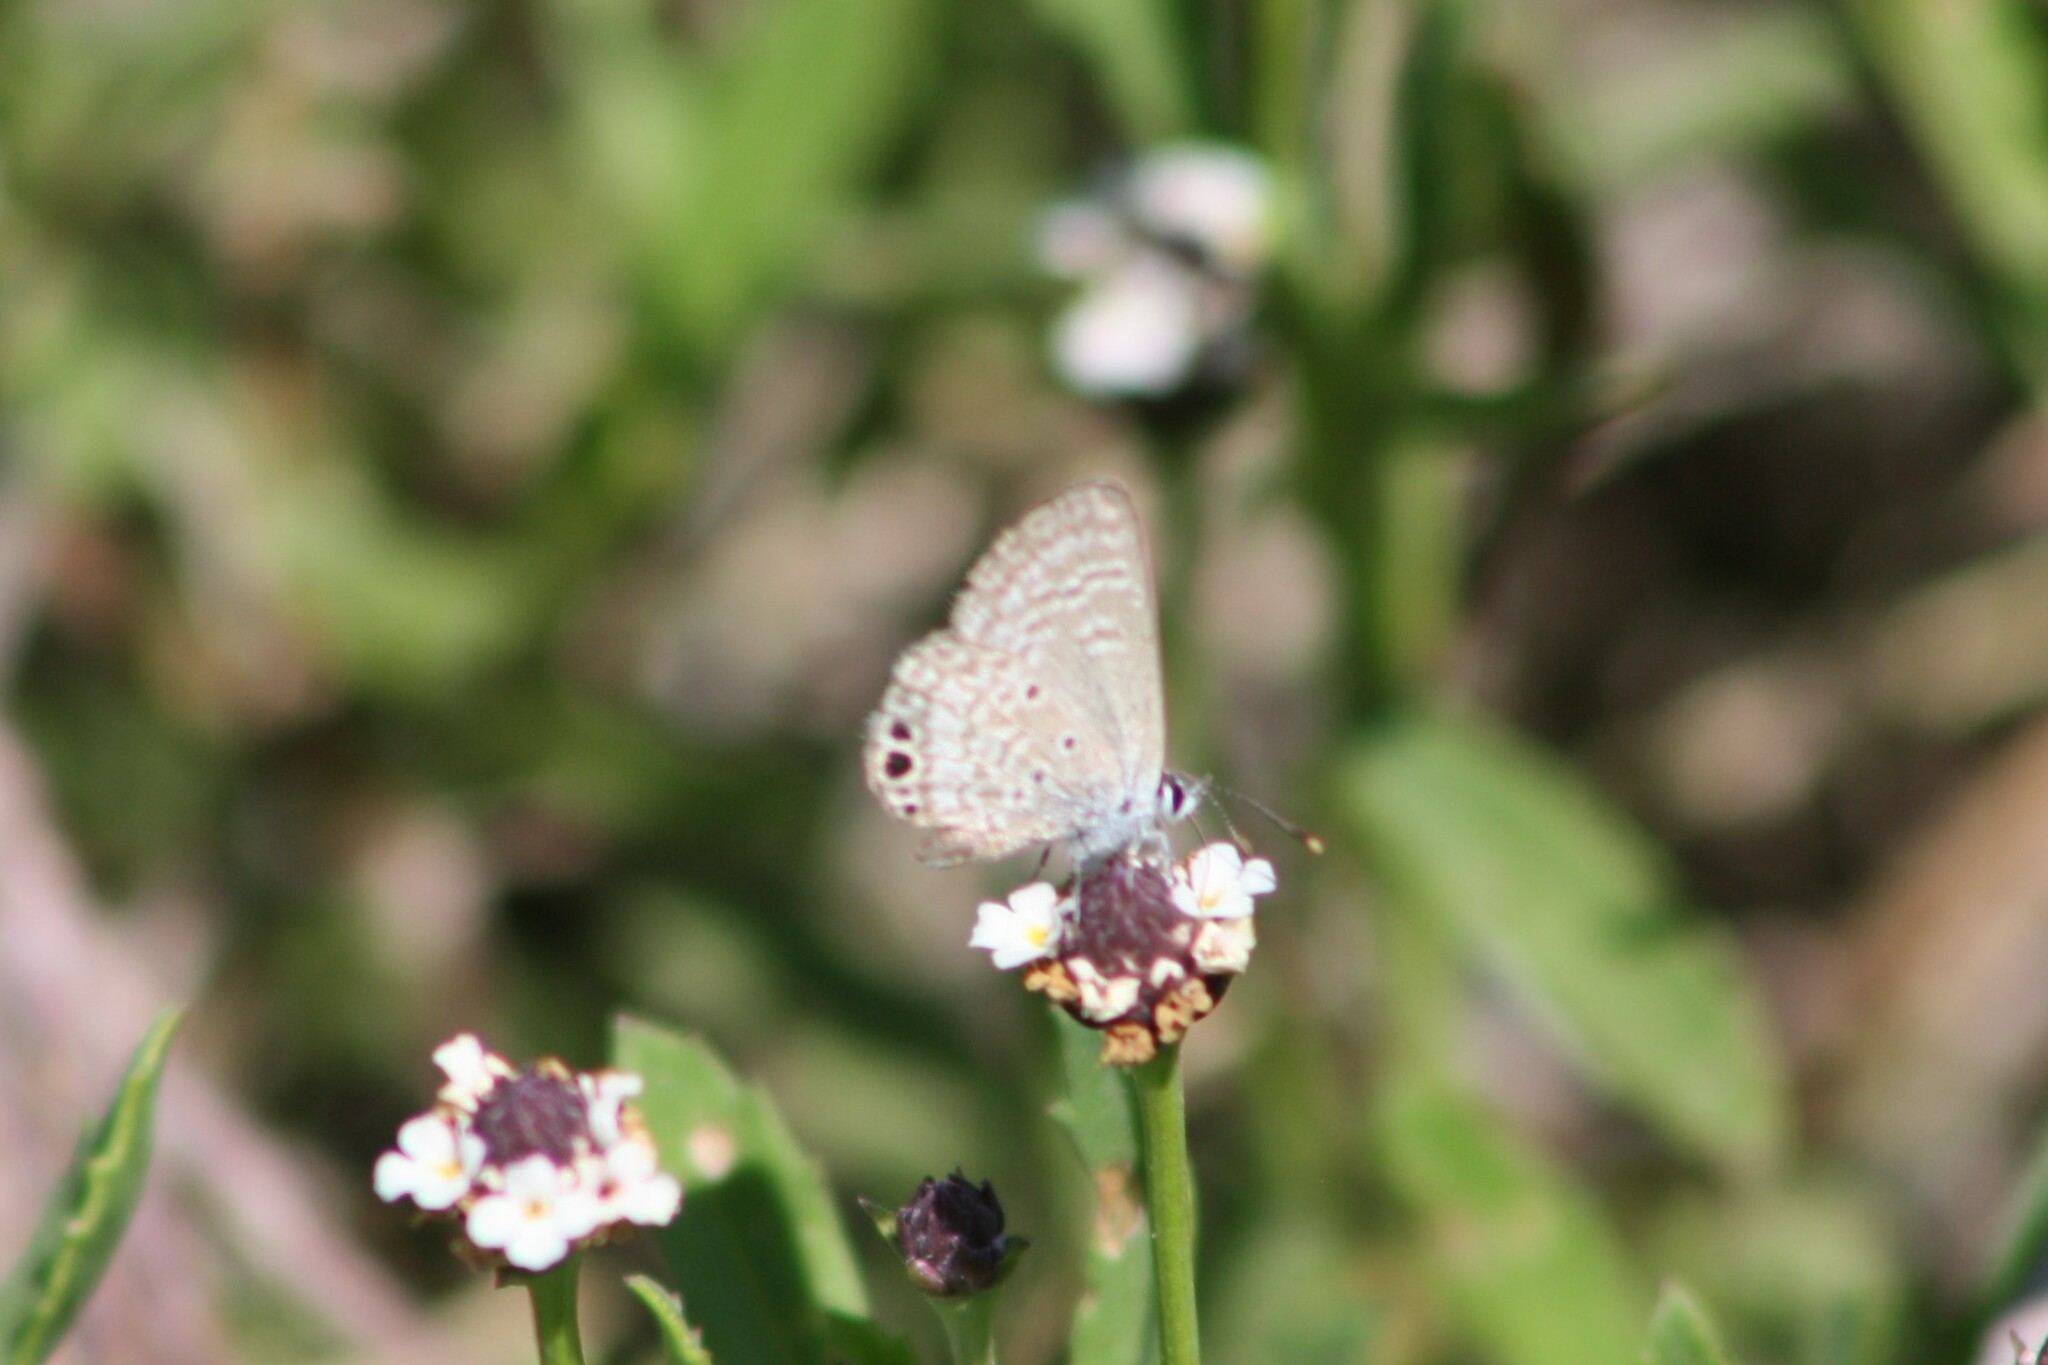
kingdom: Animalia
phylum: Arthropoda
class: Insecta
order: Lepidoptera
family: Lycaenidae
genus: Hemiargus
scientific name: Hemiargus ceraunus
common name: Ceraunus blue
